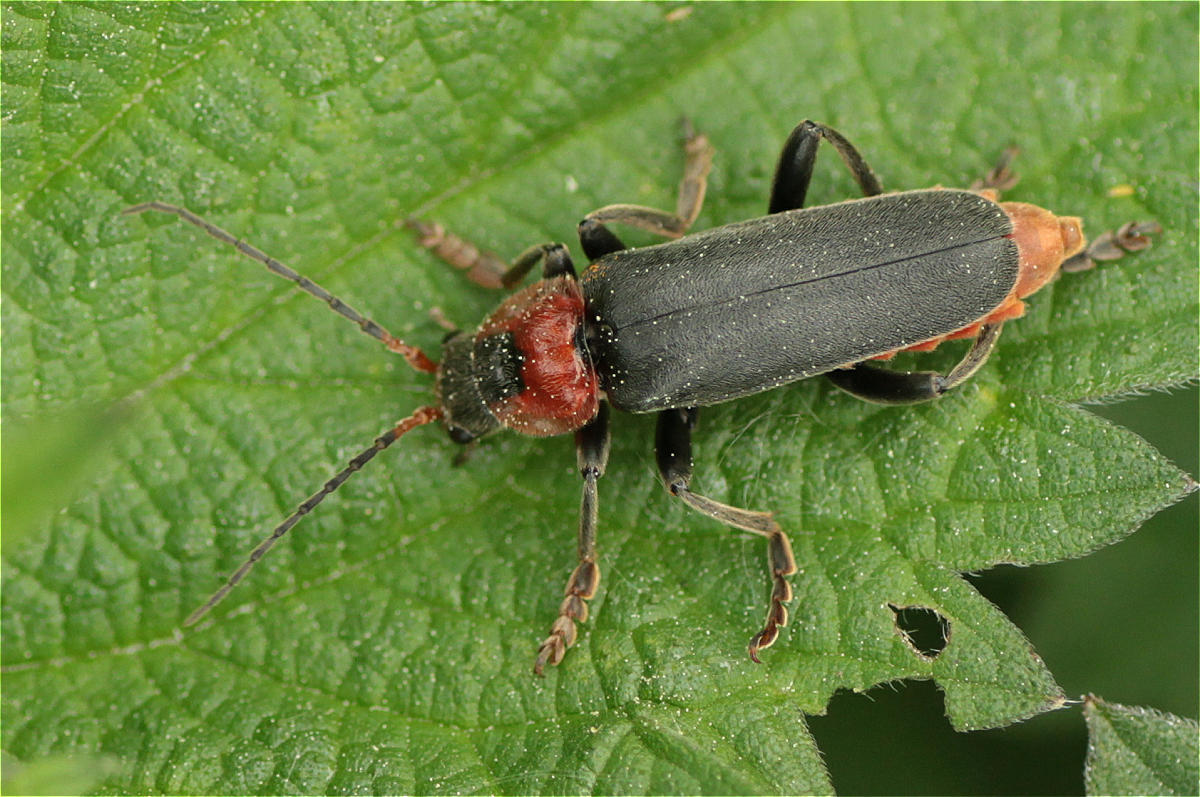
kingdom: Animalia
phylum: Arthropoda
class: Insecta
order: Coleoptera
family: Cantharidae
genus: Cantharis
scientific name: Cantharis fusca
